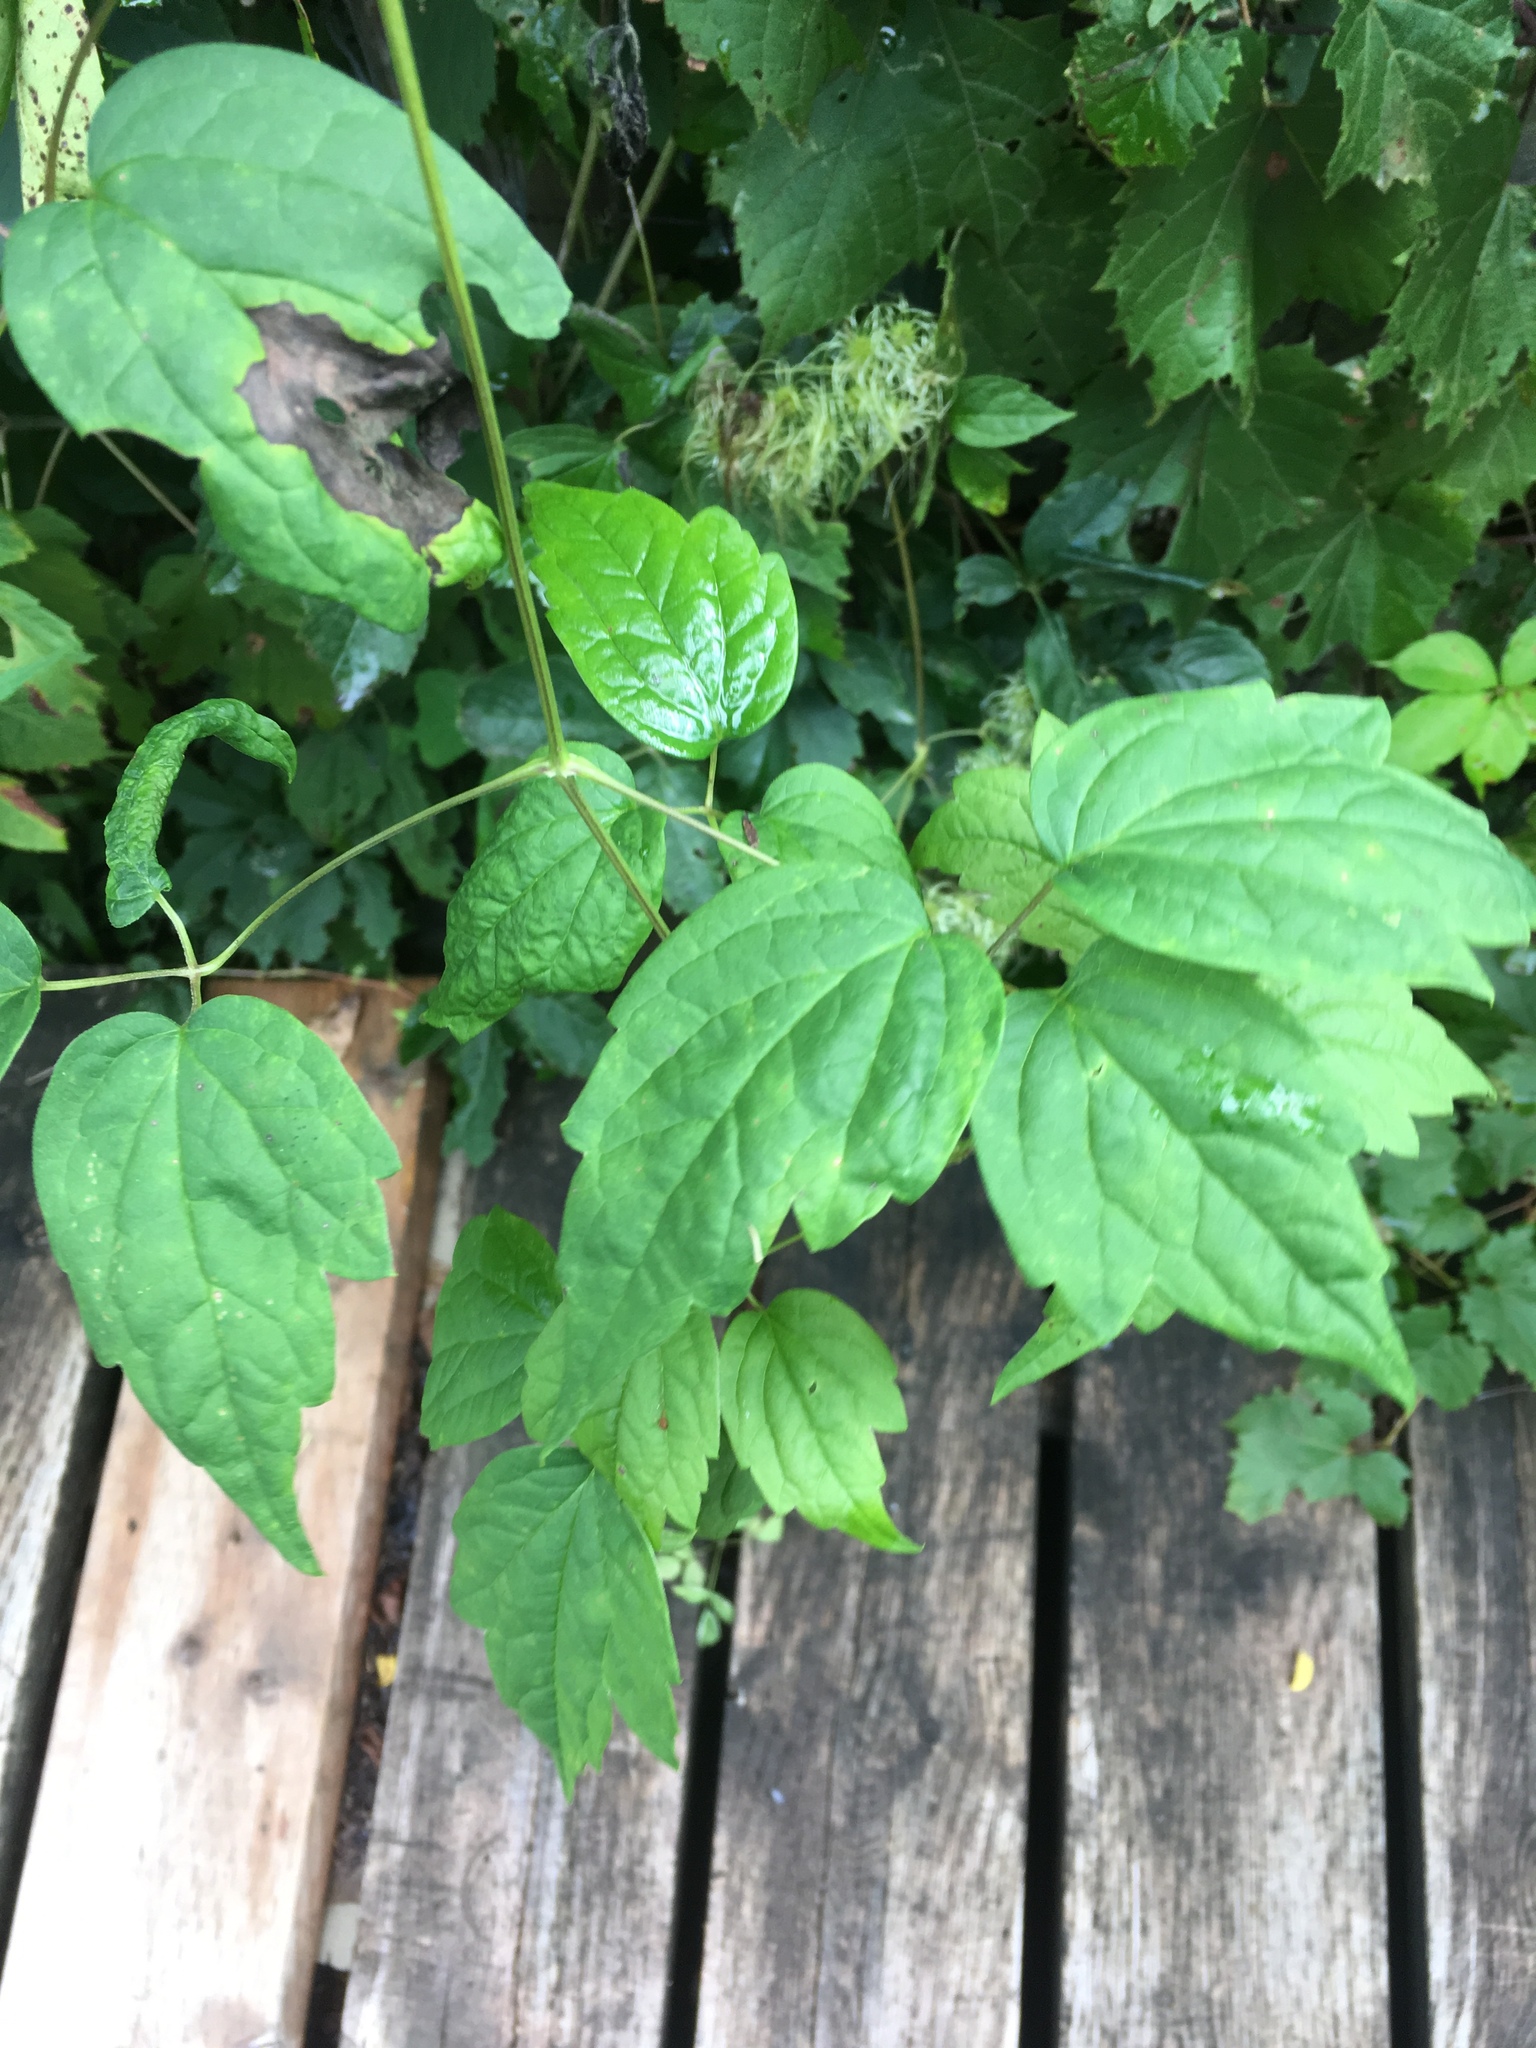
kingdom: Plantae
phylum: Tracheophyta
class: Magnoliopsida
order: Ranunculales
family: Ranunculaceae
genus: Clematis
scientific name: Clematis virginiana
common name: Virgin's-bower
